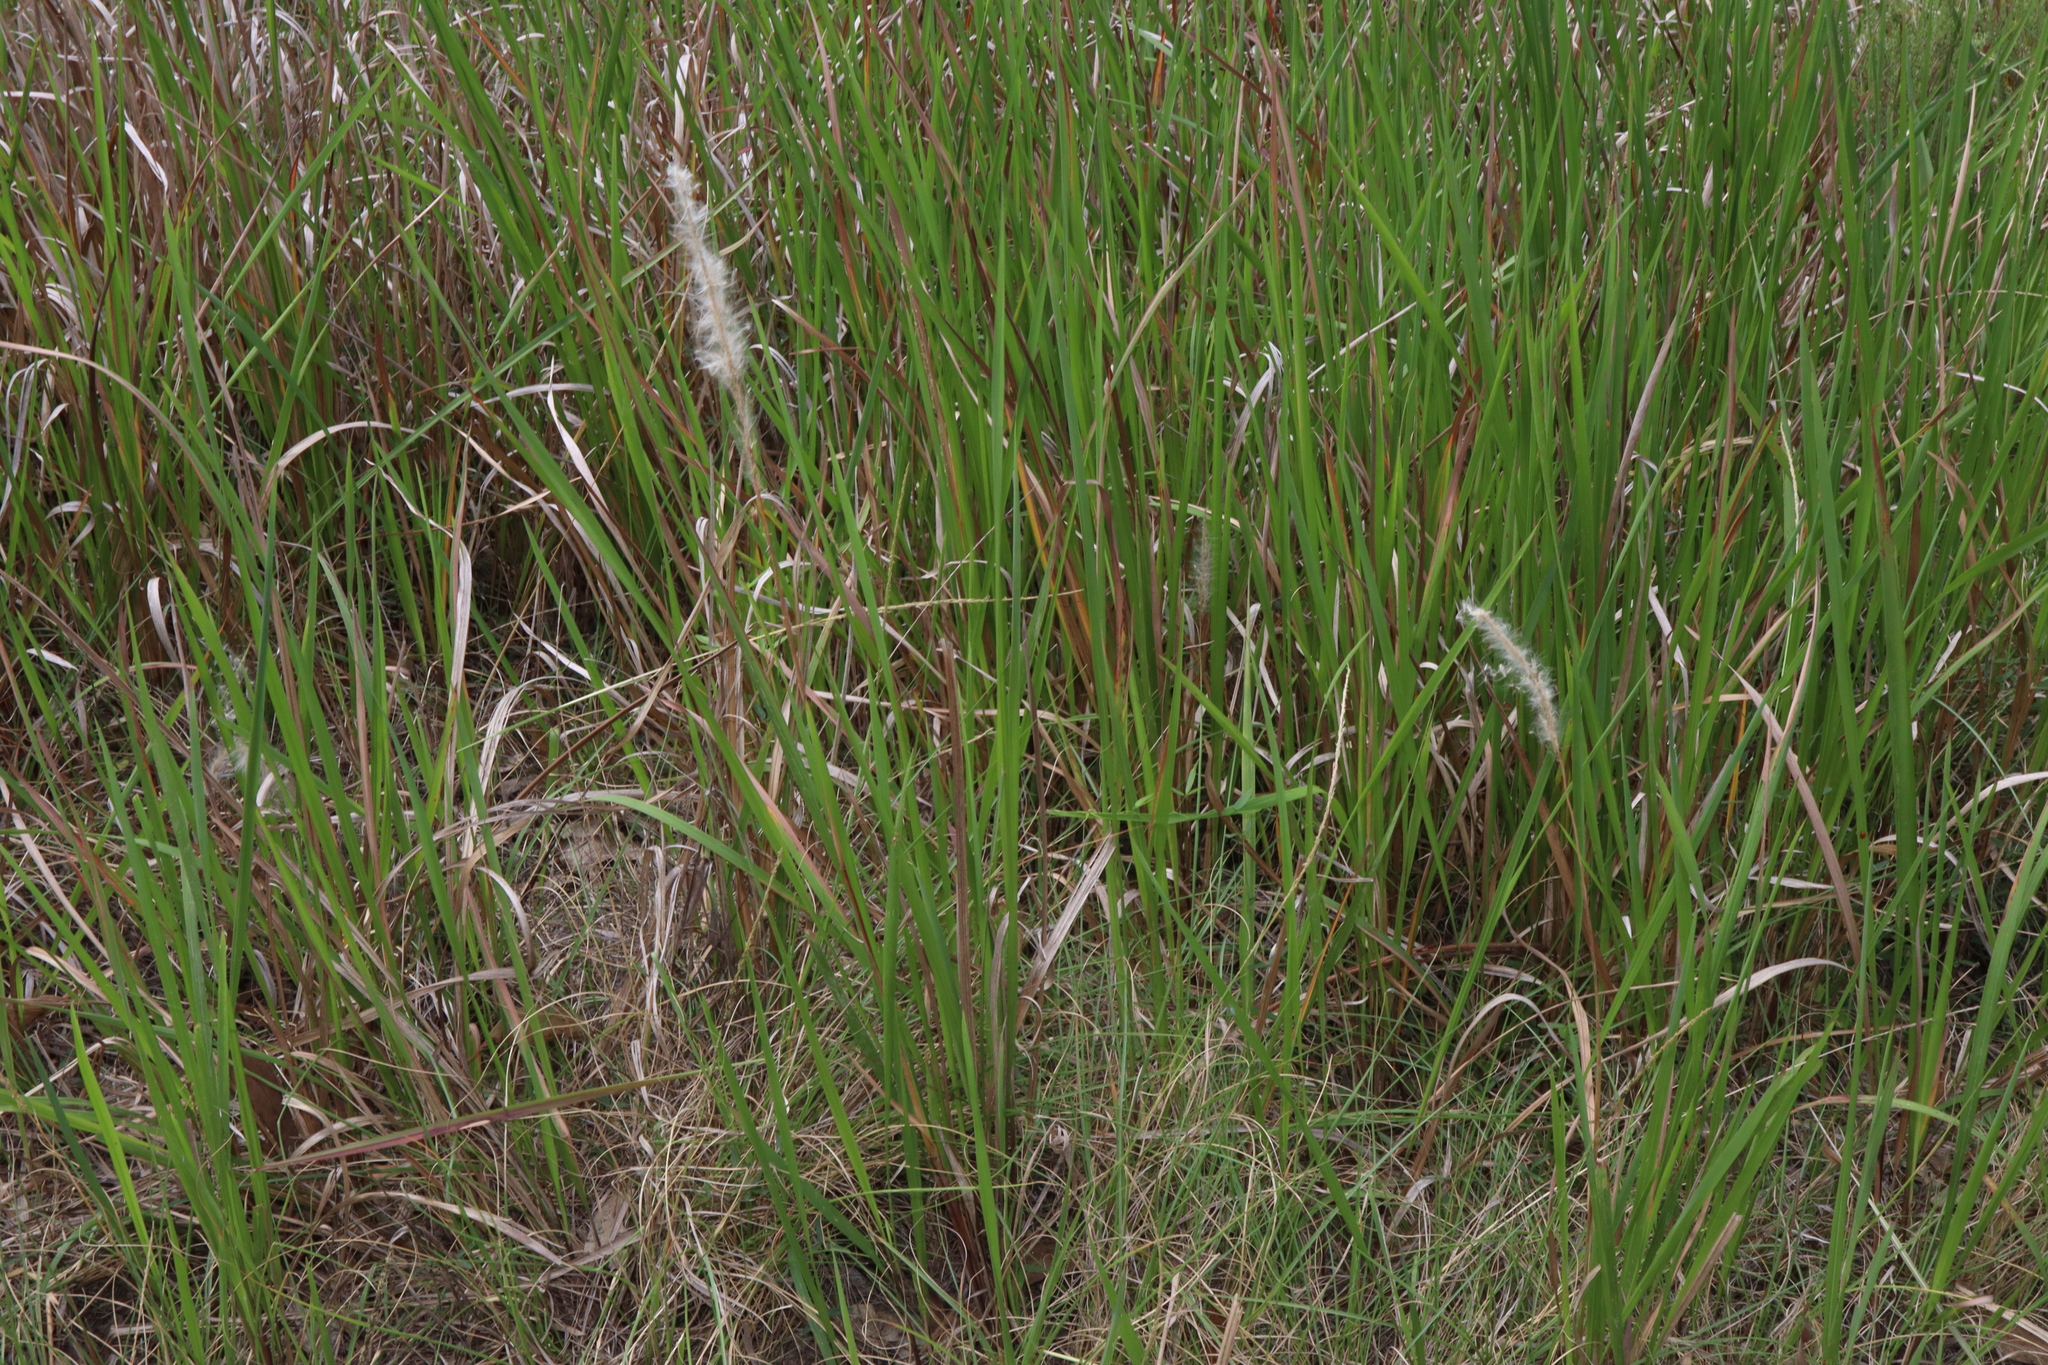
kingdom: Plantae
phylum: Tracheophyta
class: Liliopsida
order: Poales
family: Poaceae
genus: Imperata
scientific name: Imperata cylindrica
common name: Cogongrass
